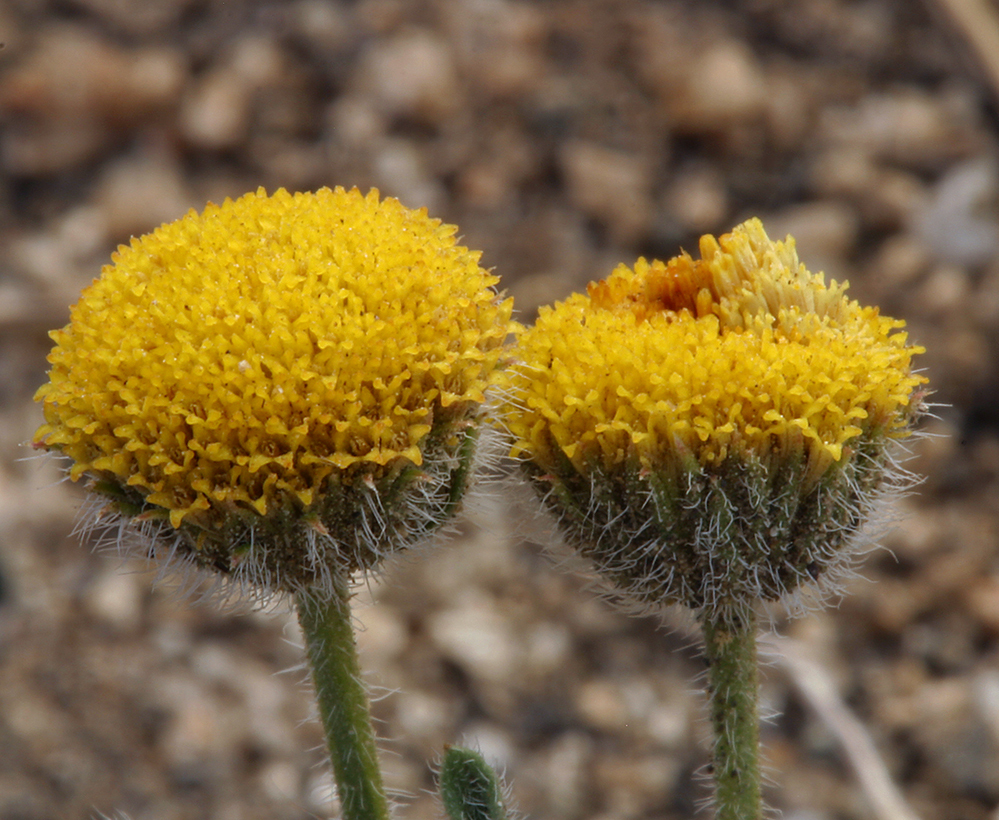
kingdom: Plantae
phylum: Tracheophyta
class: Magnoliopsida
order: Asterales
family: Asteraceae
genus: Erigeron
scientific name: Erigeron aphanactis
